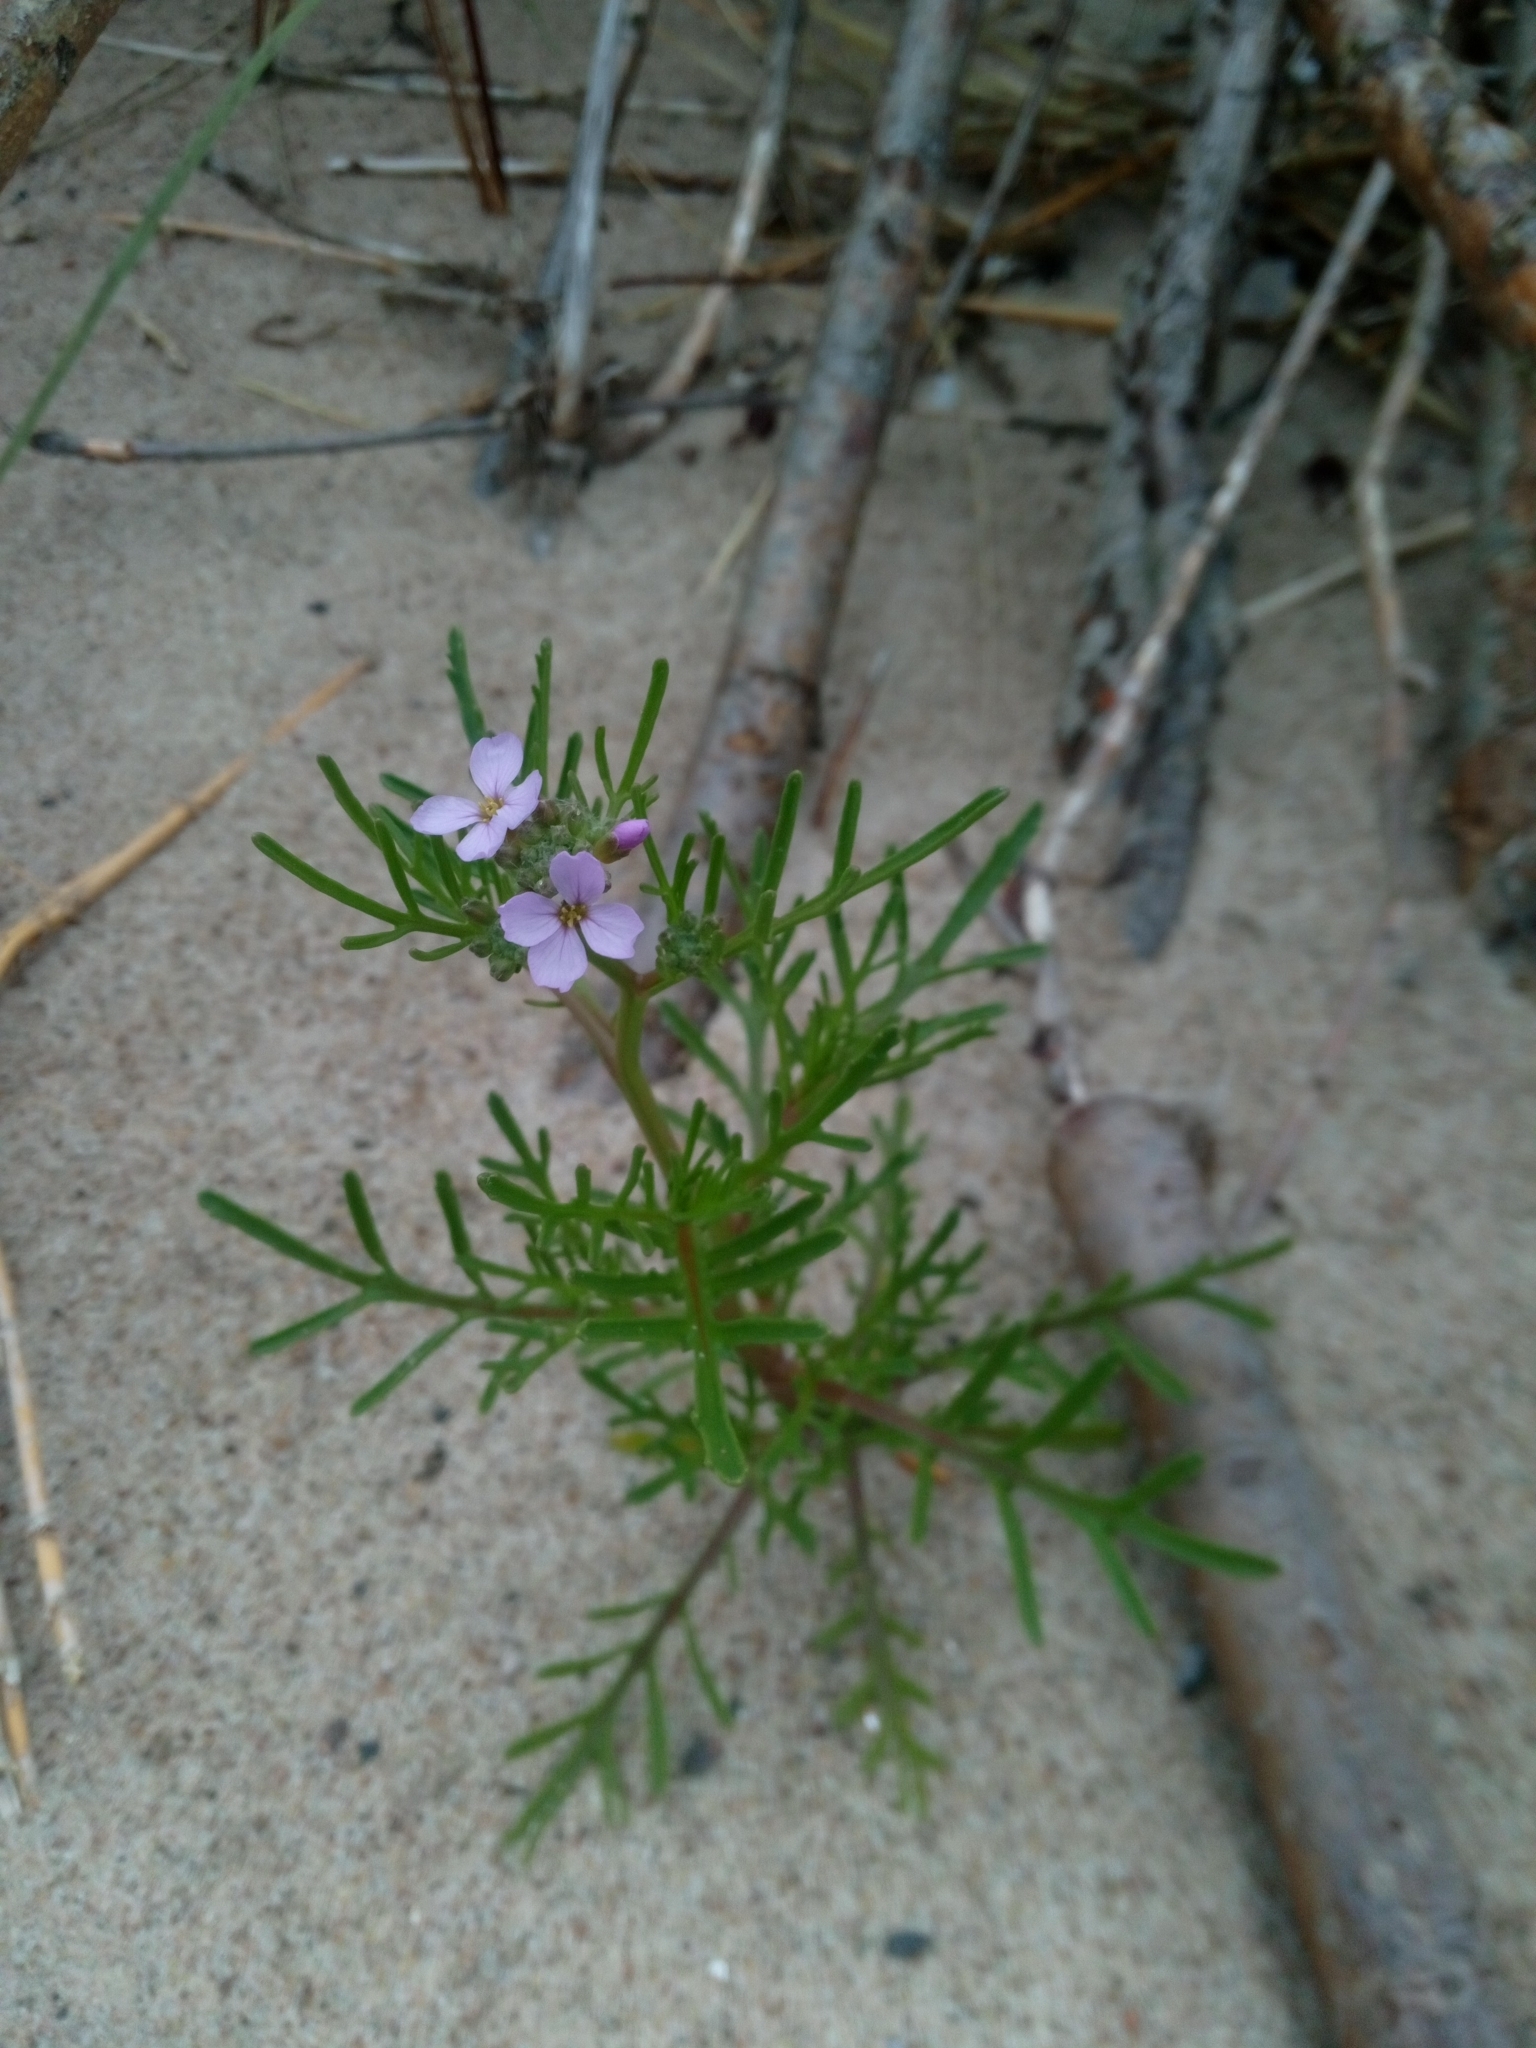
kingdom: Plantae
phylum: Tracheophyta
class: Magnoliopsida
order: Brassicales
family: Brassicaceae
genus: Cakile
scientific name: Cakile maritima
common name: Sea rocket
